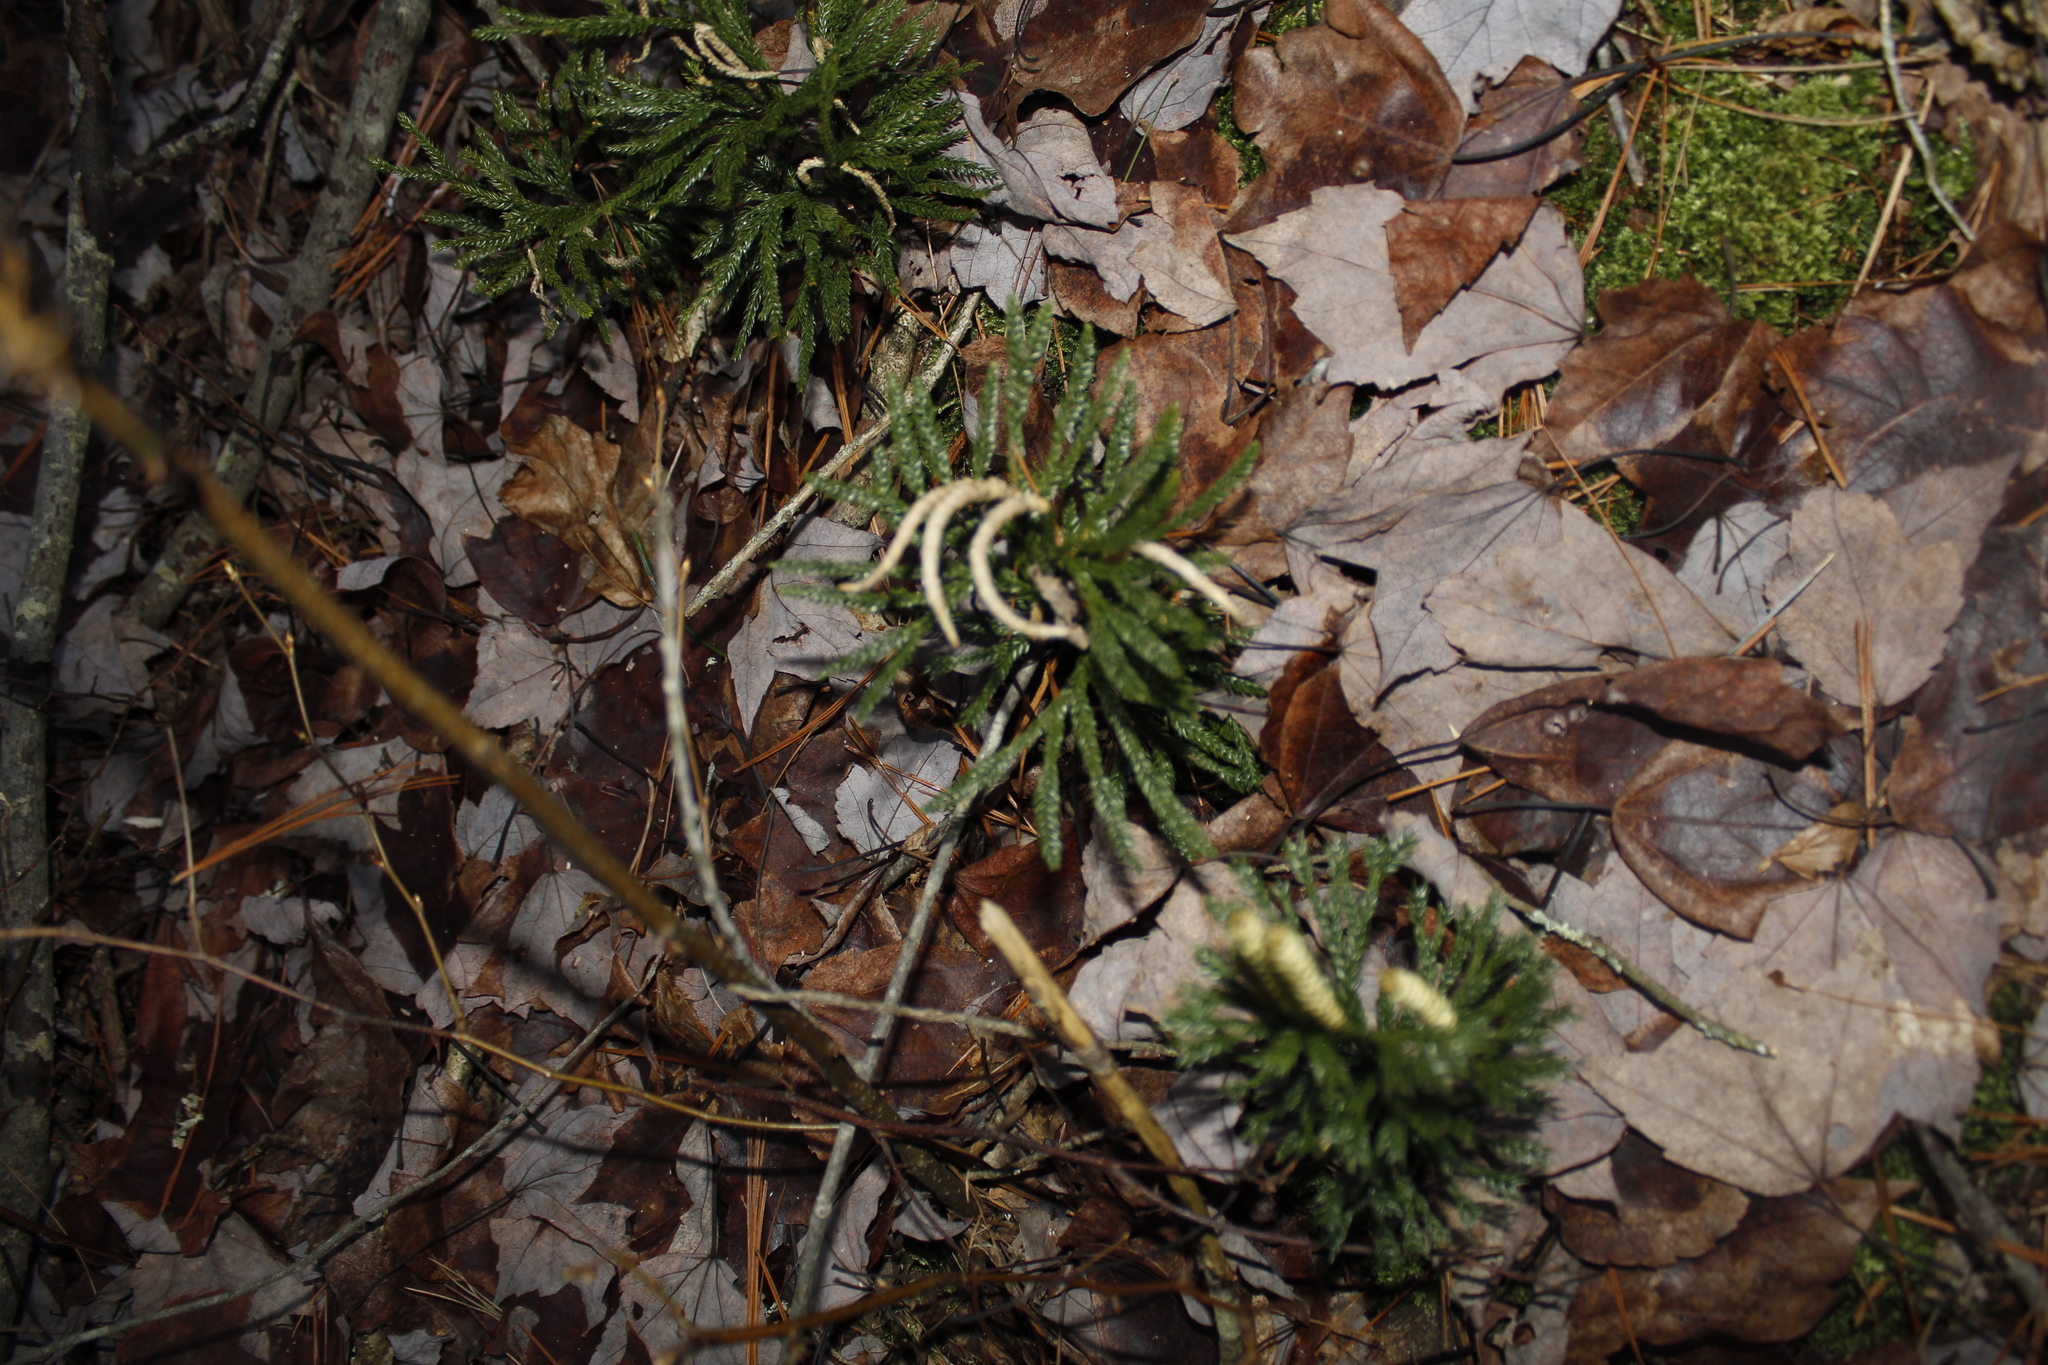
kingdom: Plantae
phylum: Tracheophyta
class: Lycopodiopsida
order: Lycopodiales
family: Lycopodiaceae
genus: Dendrolycopodium
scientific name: Dendrolycopodium obscurum
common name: Common ground-pine
